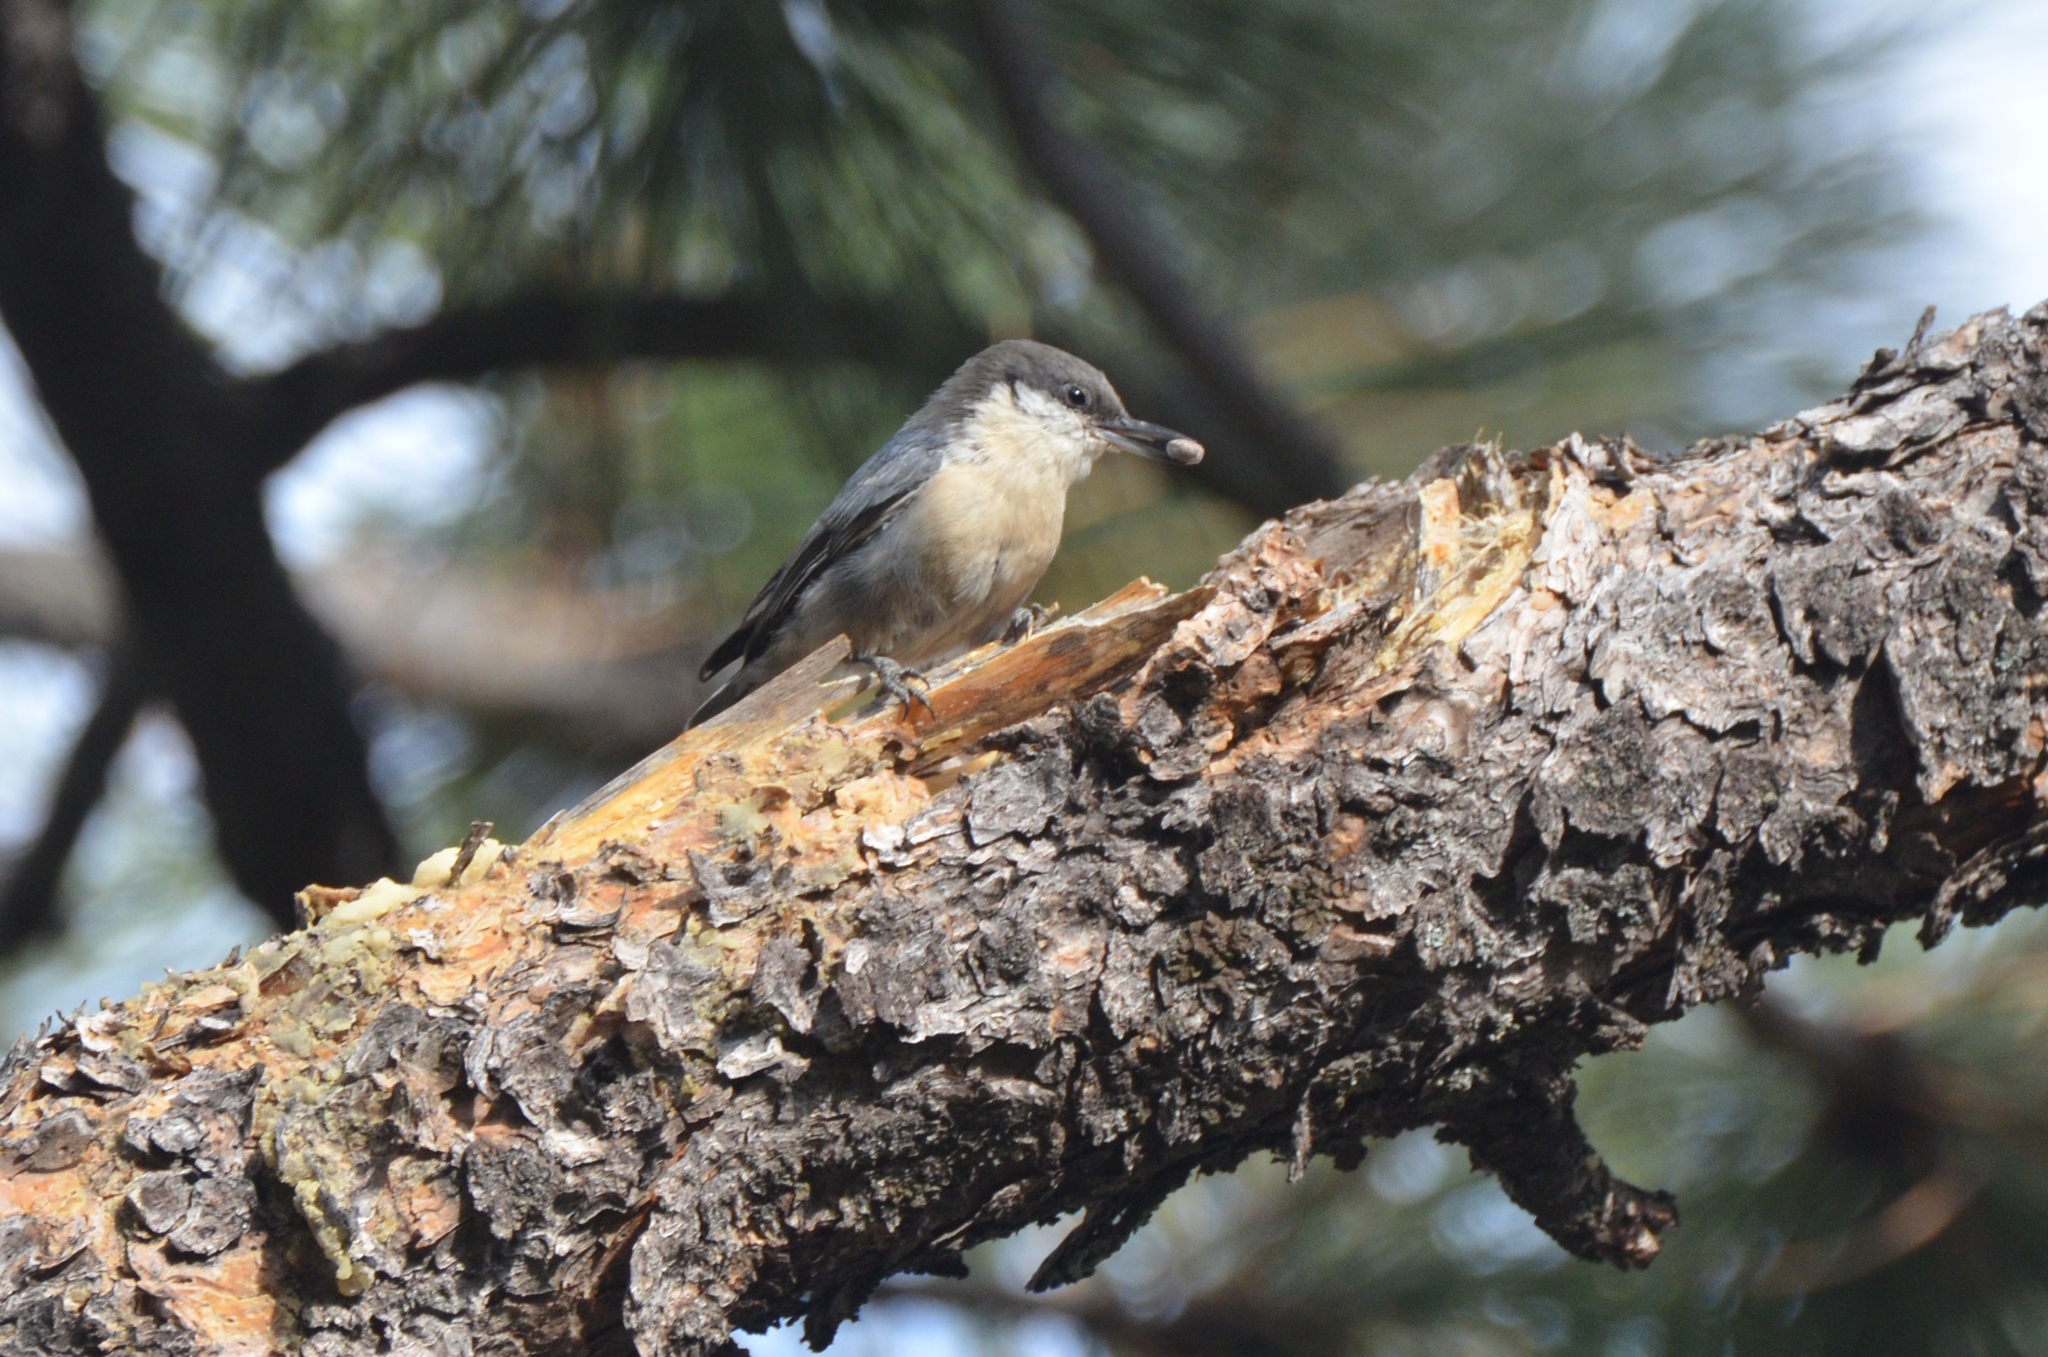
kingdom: Animalia
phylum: Chordata
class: Aves
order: Passeriformes
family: Sittidae
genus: Sitta
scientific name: Sitta pygmaea
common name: Pygmy nuthatch
